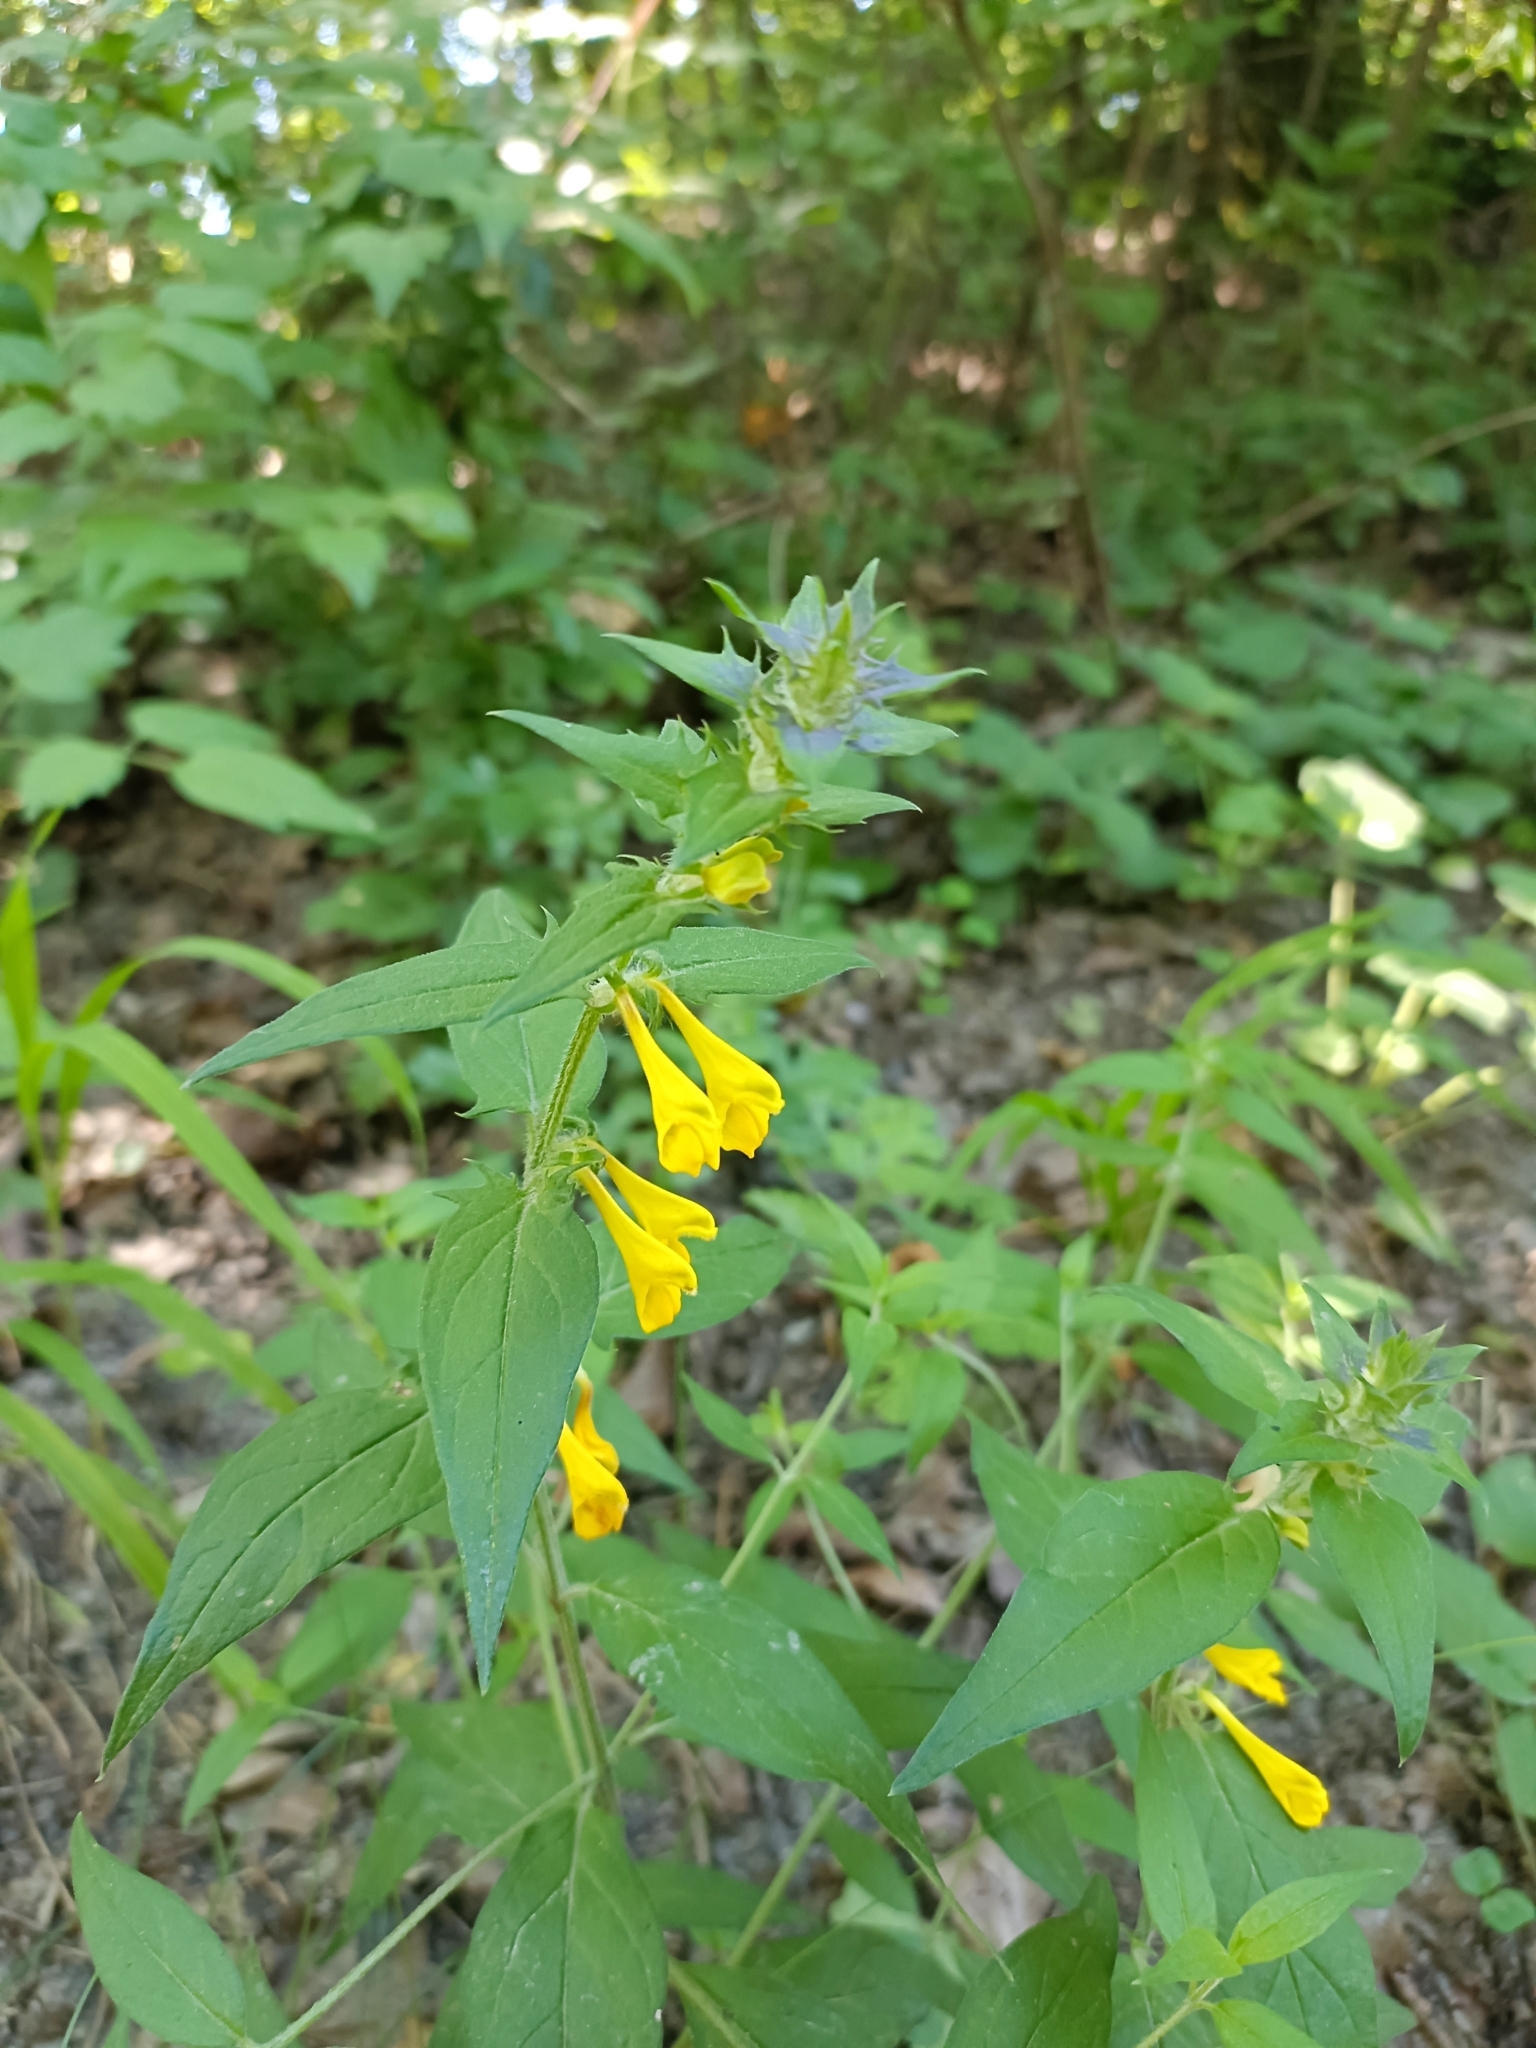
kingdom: Plantae
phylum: Tracheophyta
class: Magnoliopsida
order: Lamiales
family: Orobanchaceae
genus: Melampyrum
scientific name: Melampyrum nemorosum
